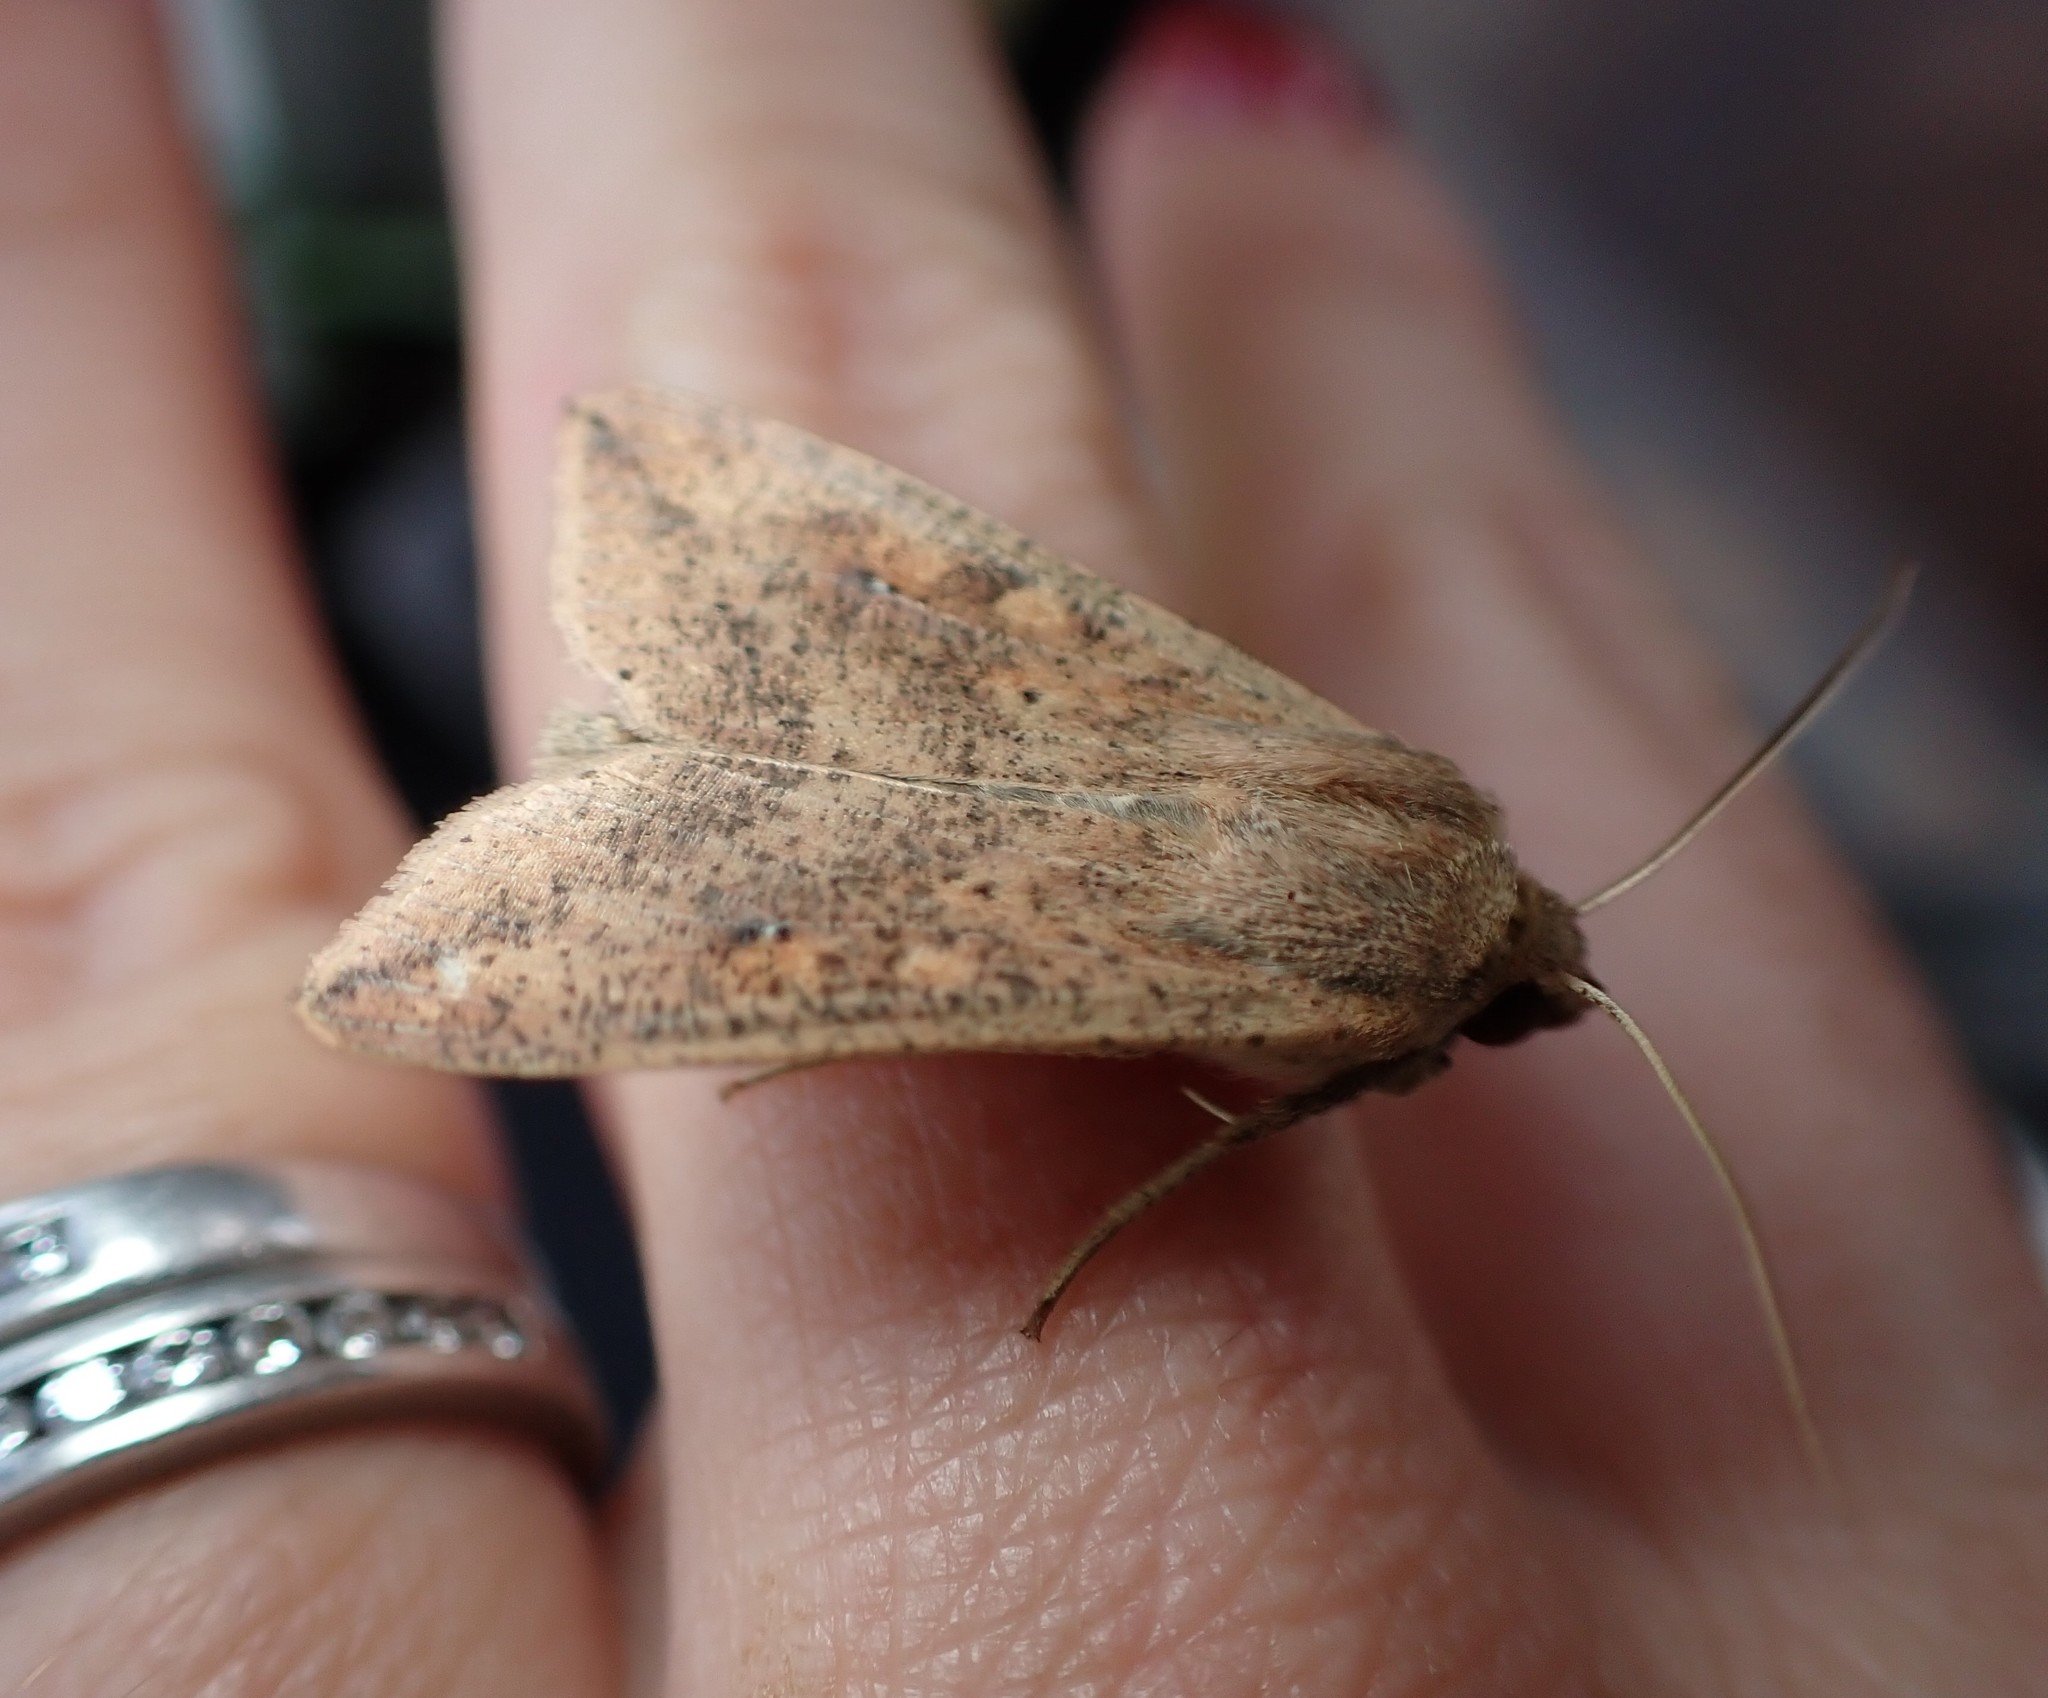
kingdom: Animalia
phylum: Arthropoda
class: Insecta
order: Lepidoptera
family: Noctuidae
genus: Mythimna
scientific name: Mythimna separata
